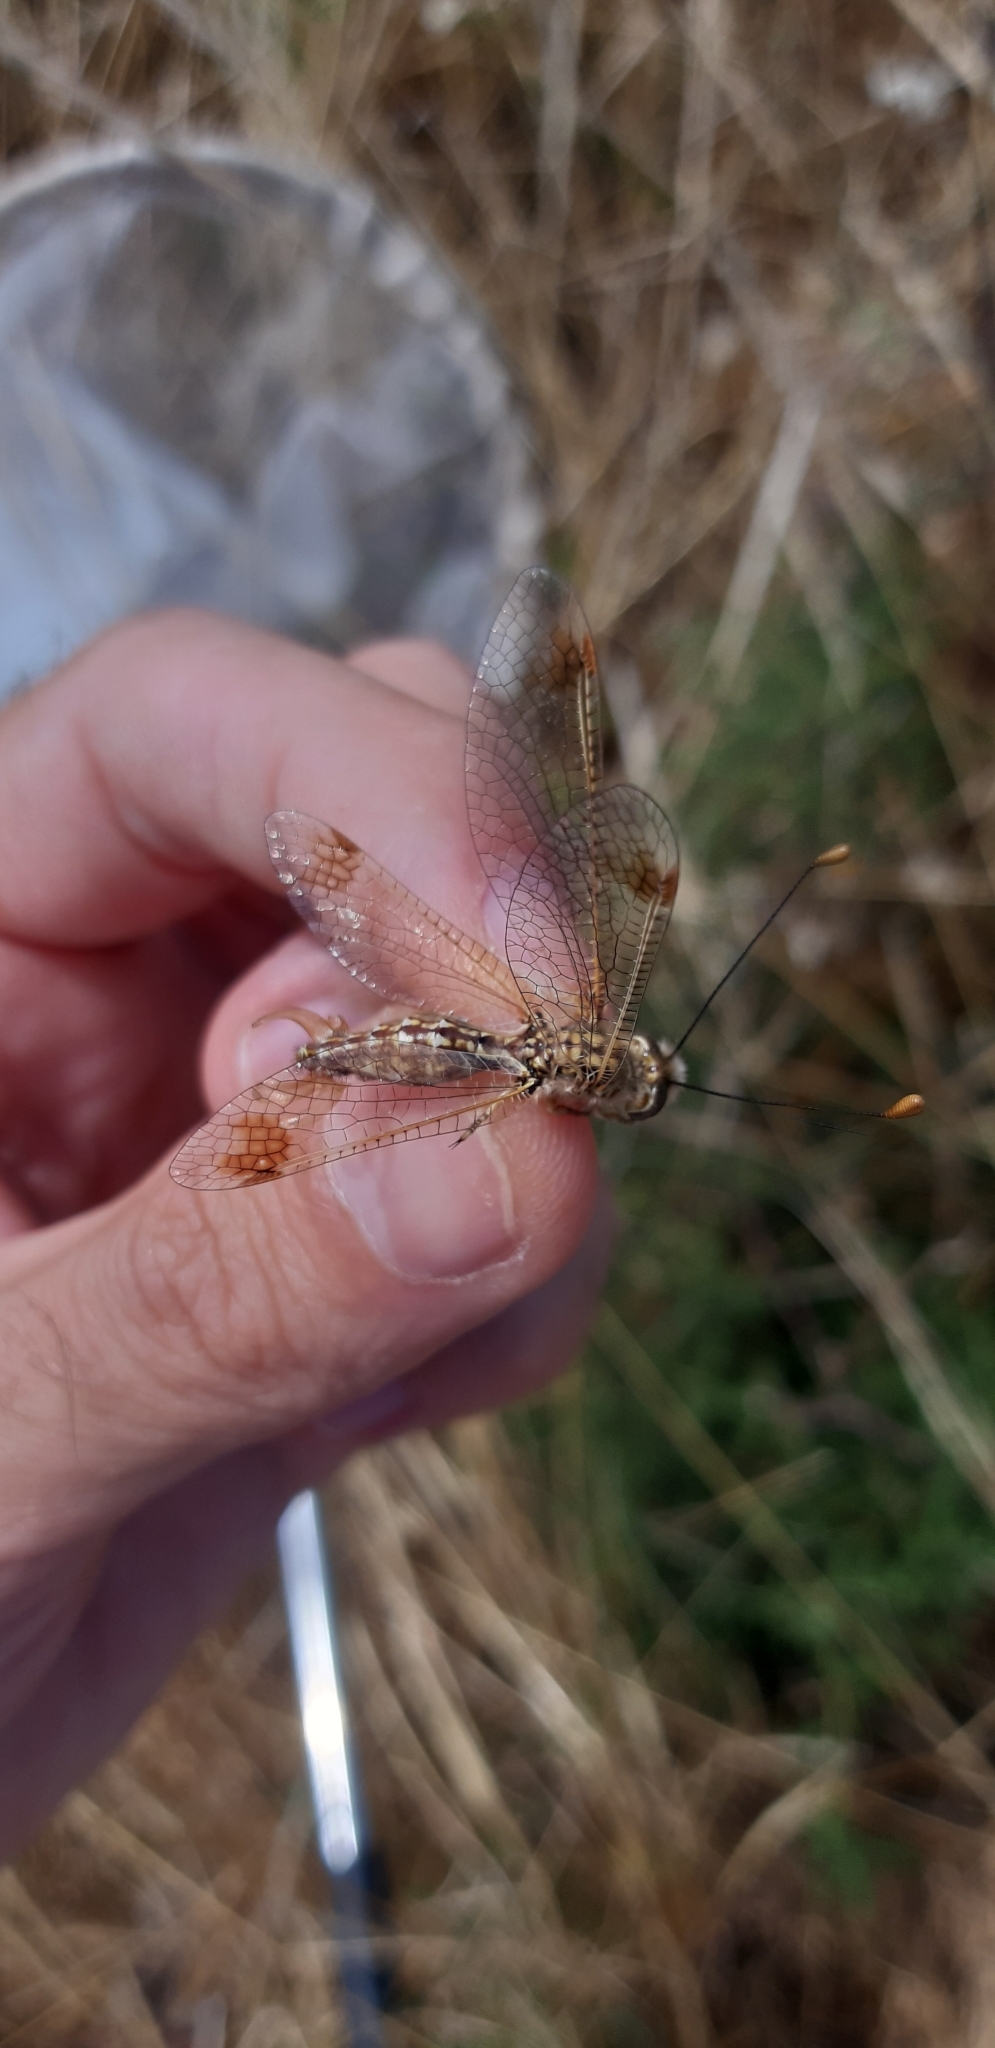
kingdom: Animalia
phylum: Arthropoda
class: Insecta
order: Neuroptera
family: Ascalaphidae
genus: Deleproctophylla
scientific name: Deleproctophylla australis
